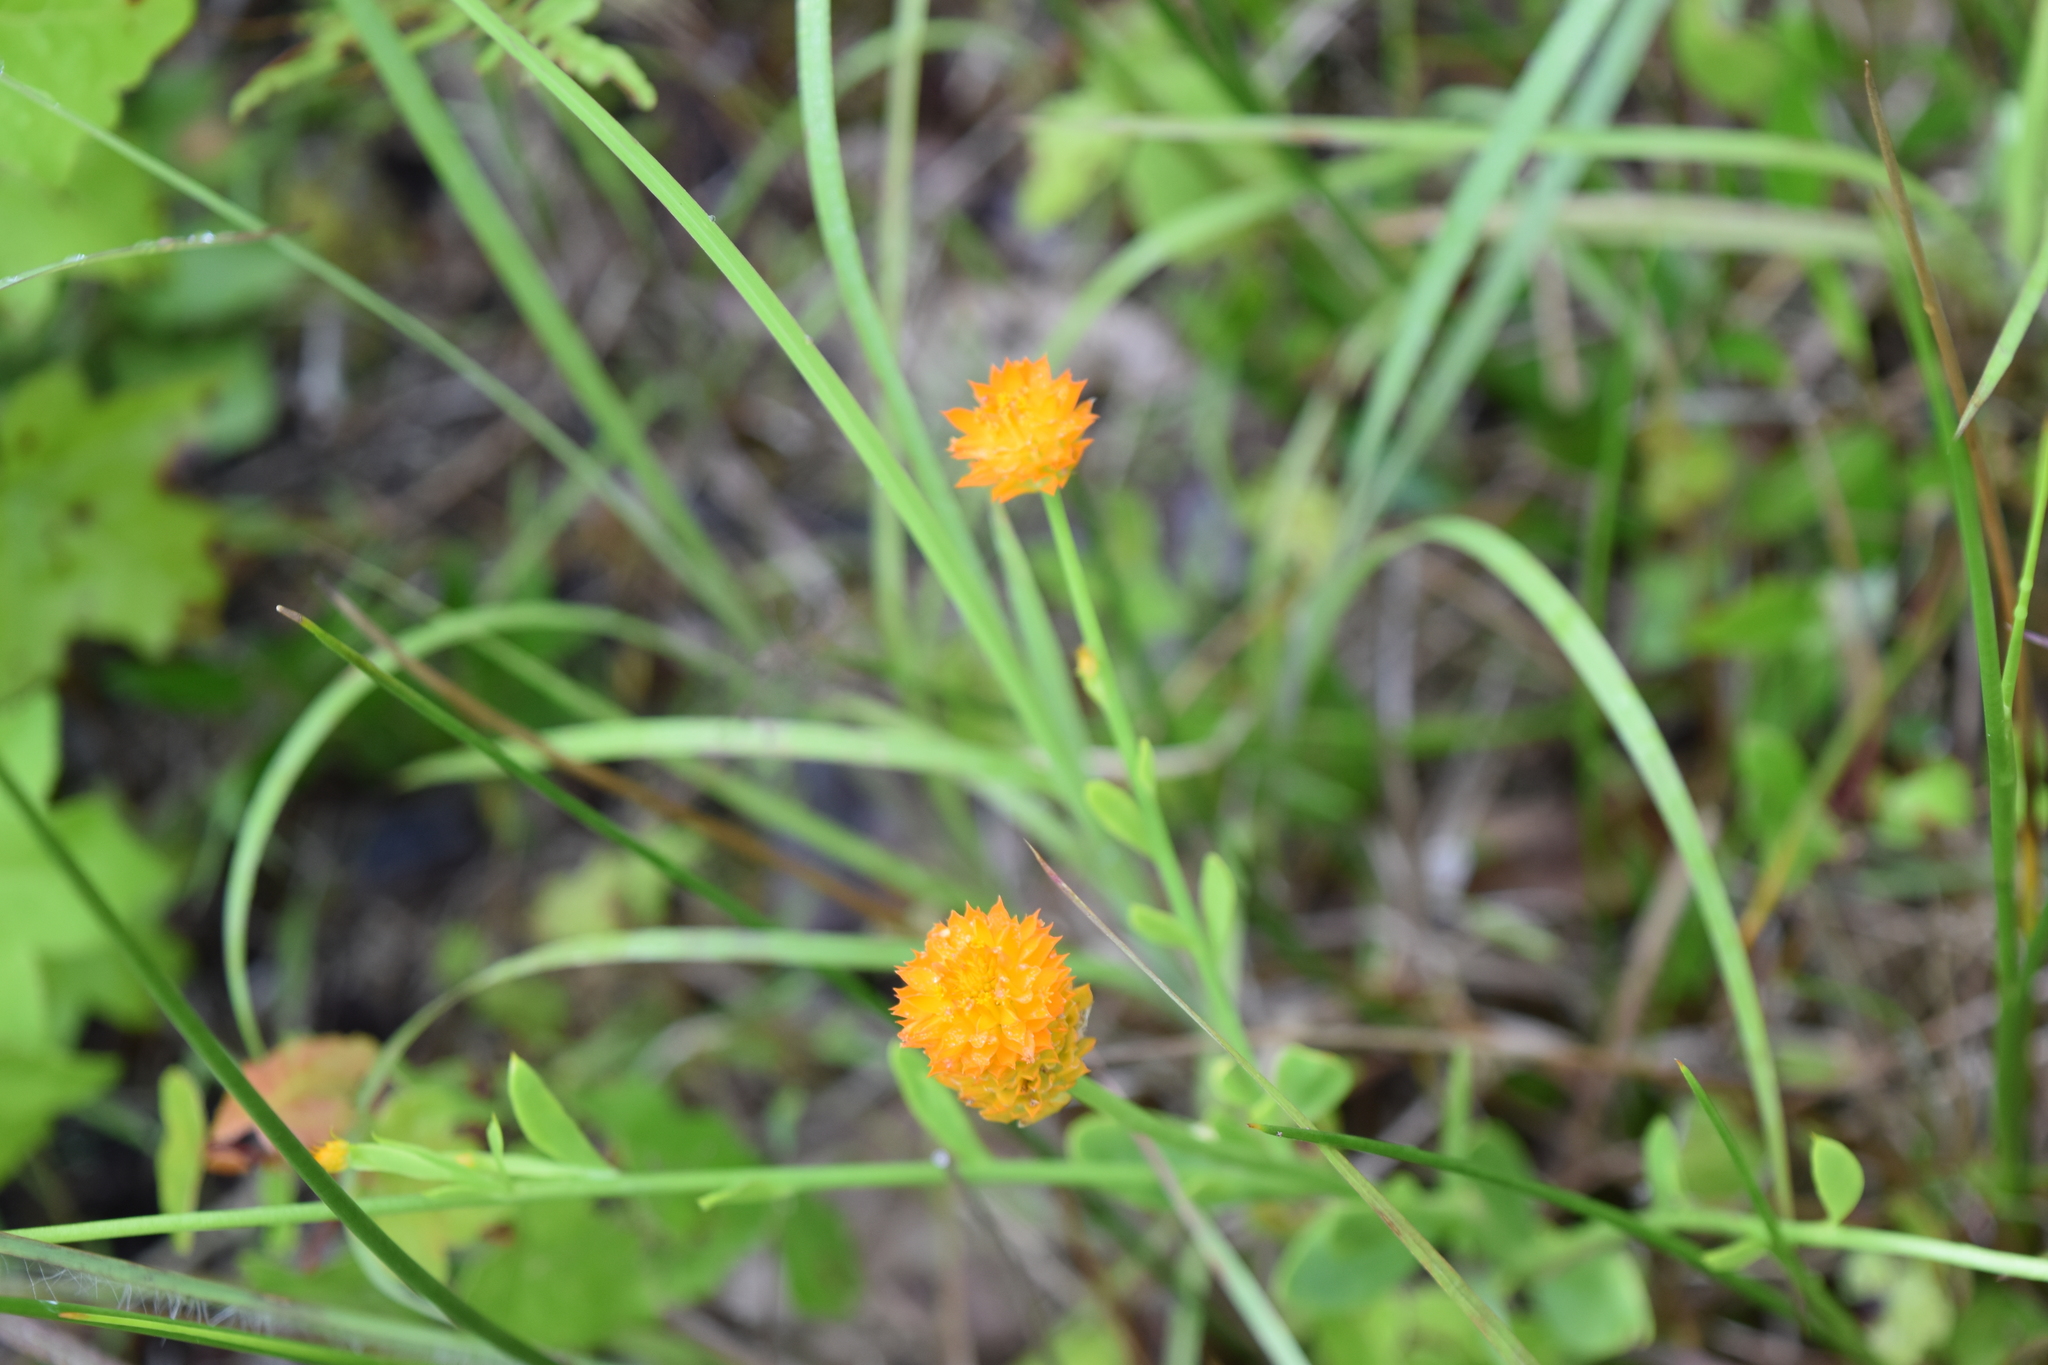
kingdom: Plantae
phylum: Tracheophyta
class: Magnoliopsida
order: Fabales
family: Polygalaceae
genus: Polygala
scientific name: Polygala lutea
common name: Orange milkwort
